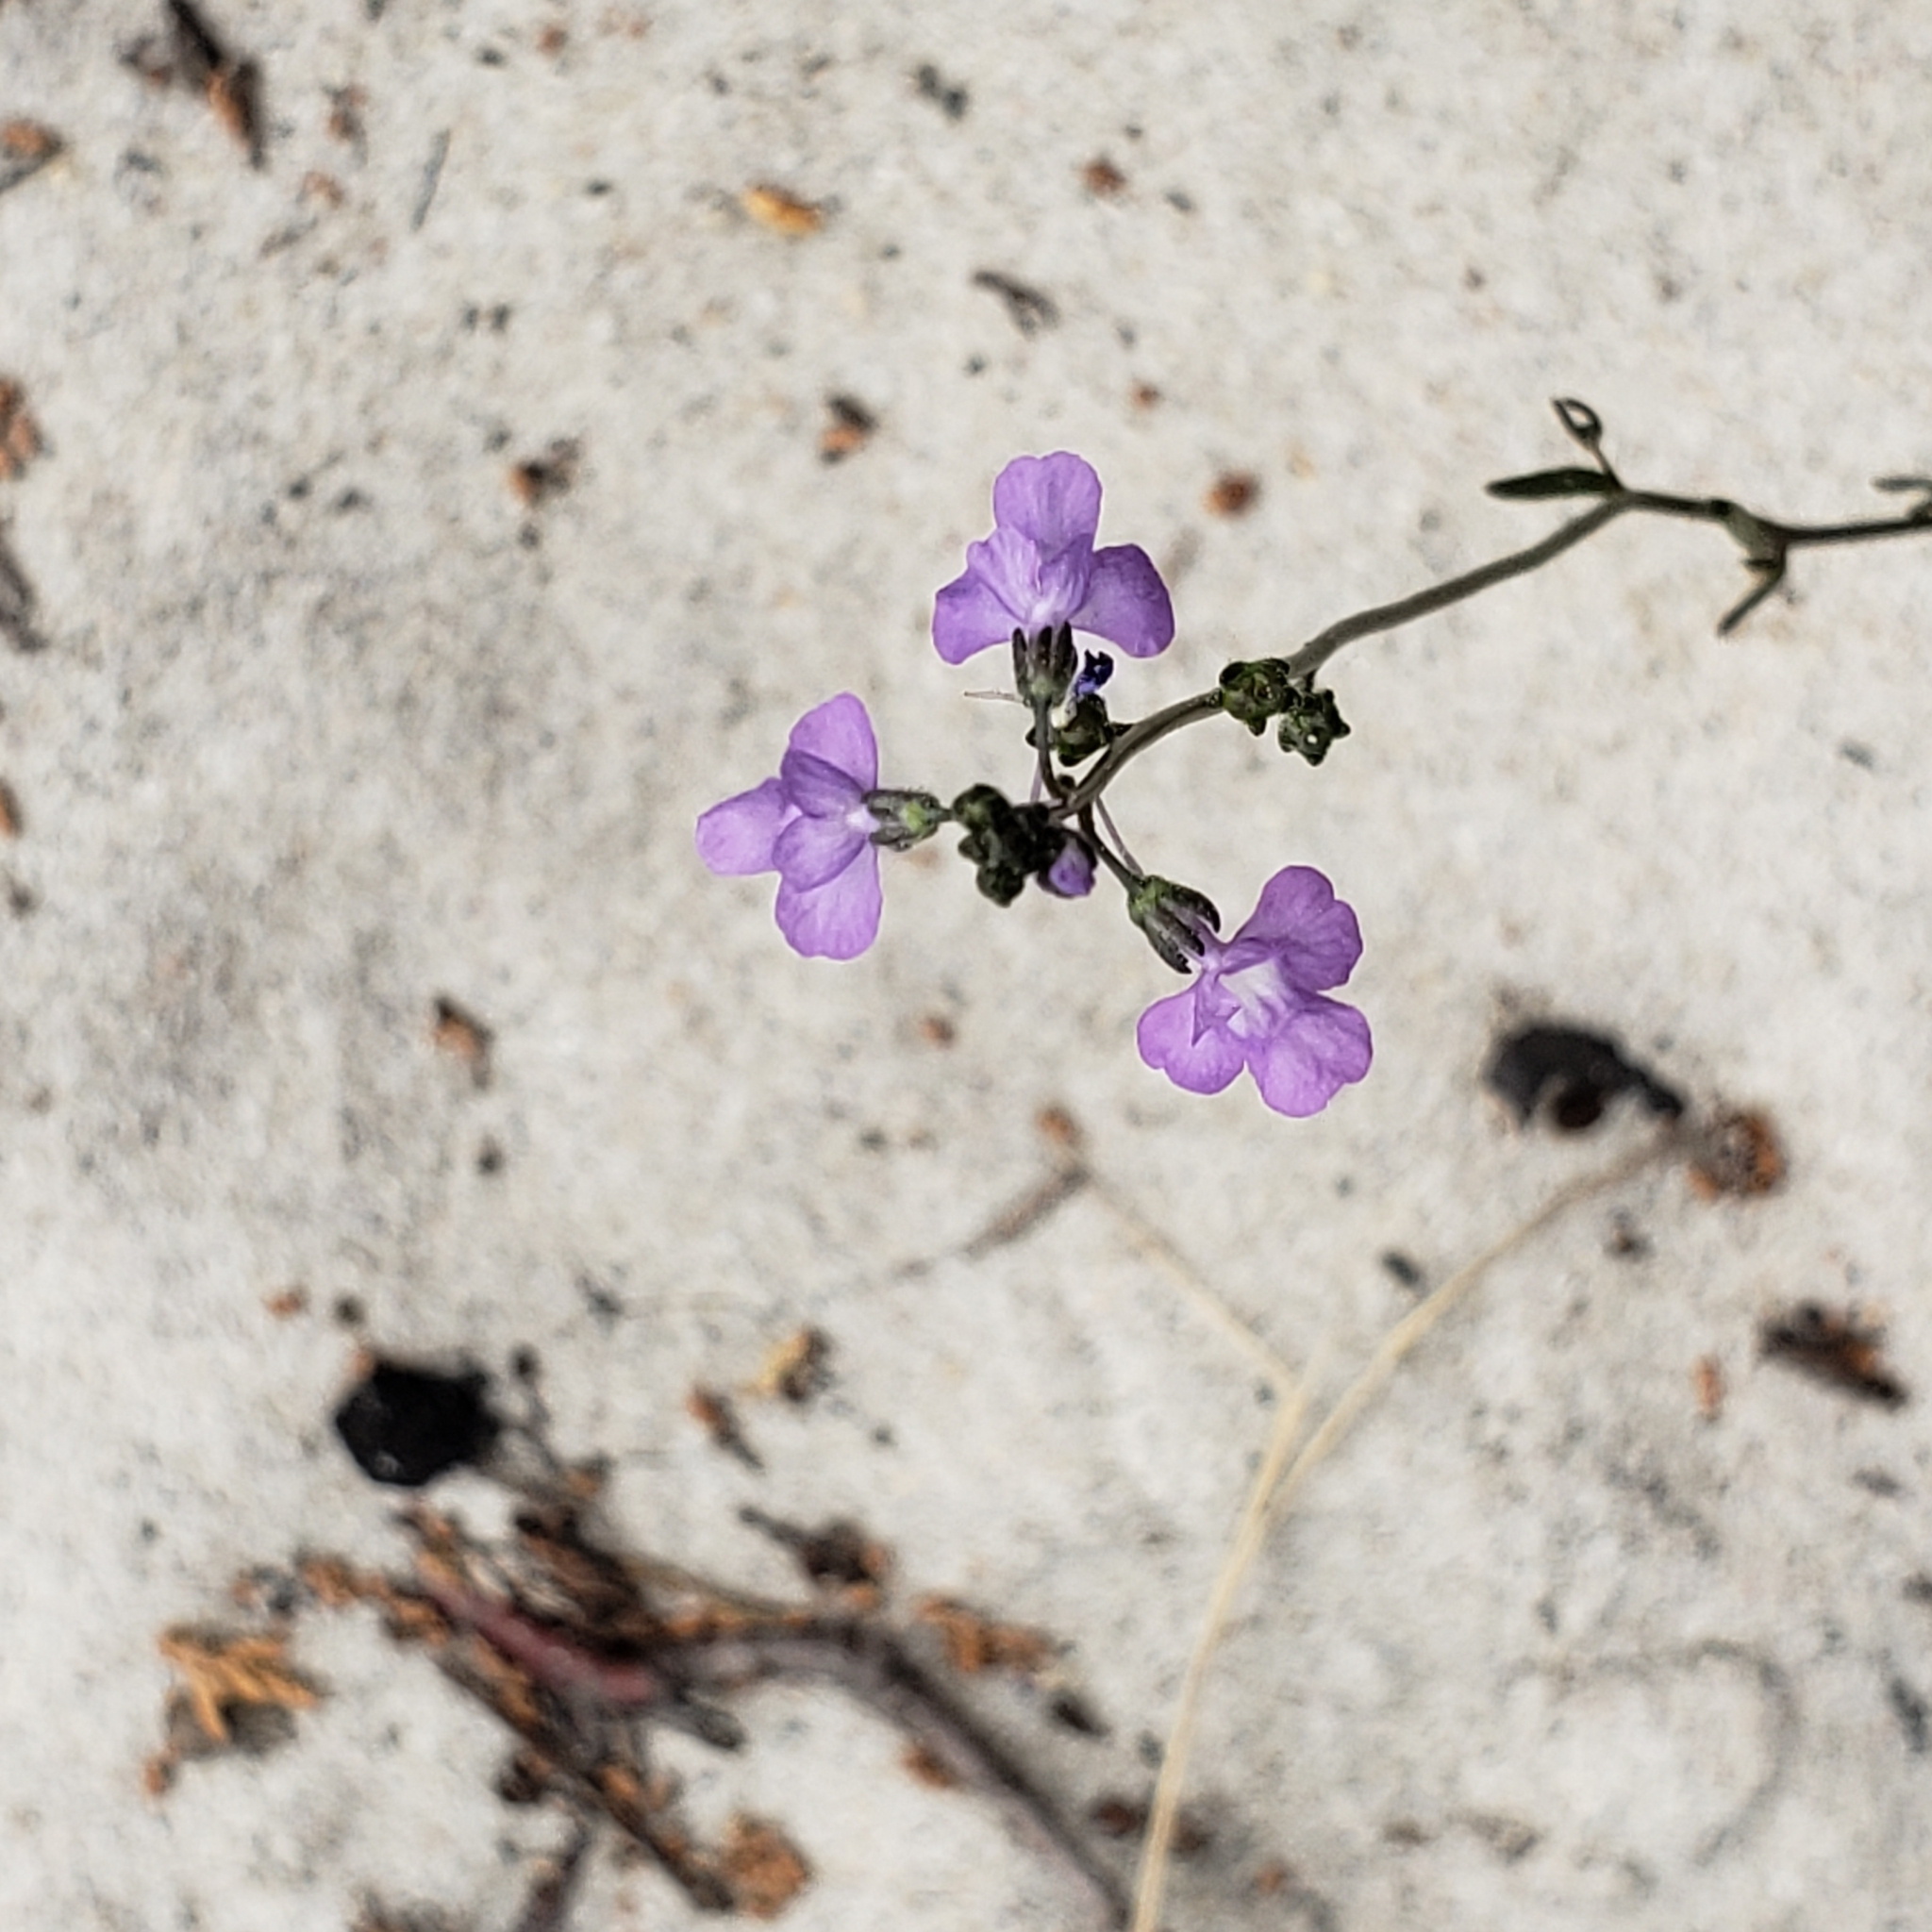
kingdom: Plantae
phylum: Tracheophyta
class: Magnoliopsida
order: Lamiales
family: Plantaginaceae
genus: Nuttallanthus
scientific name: Nuttallanthus canadensis
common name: Blue toadflax
